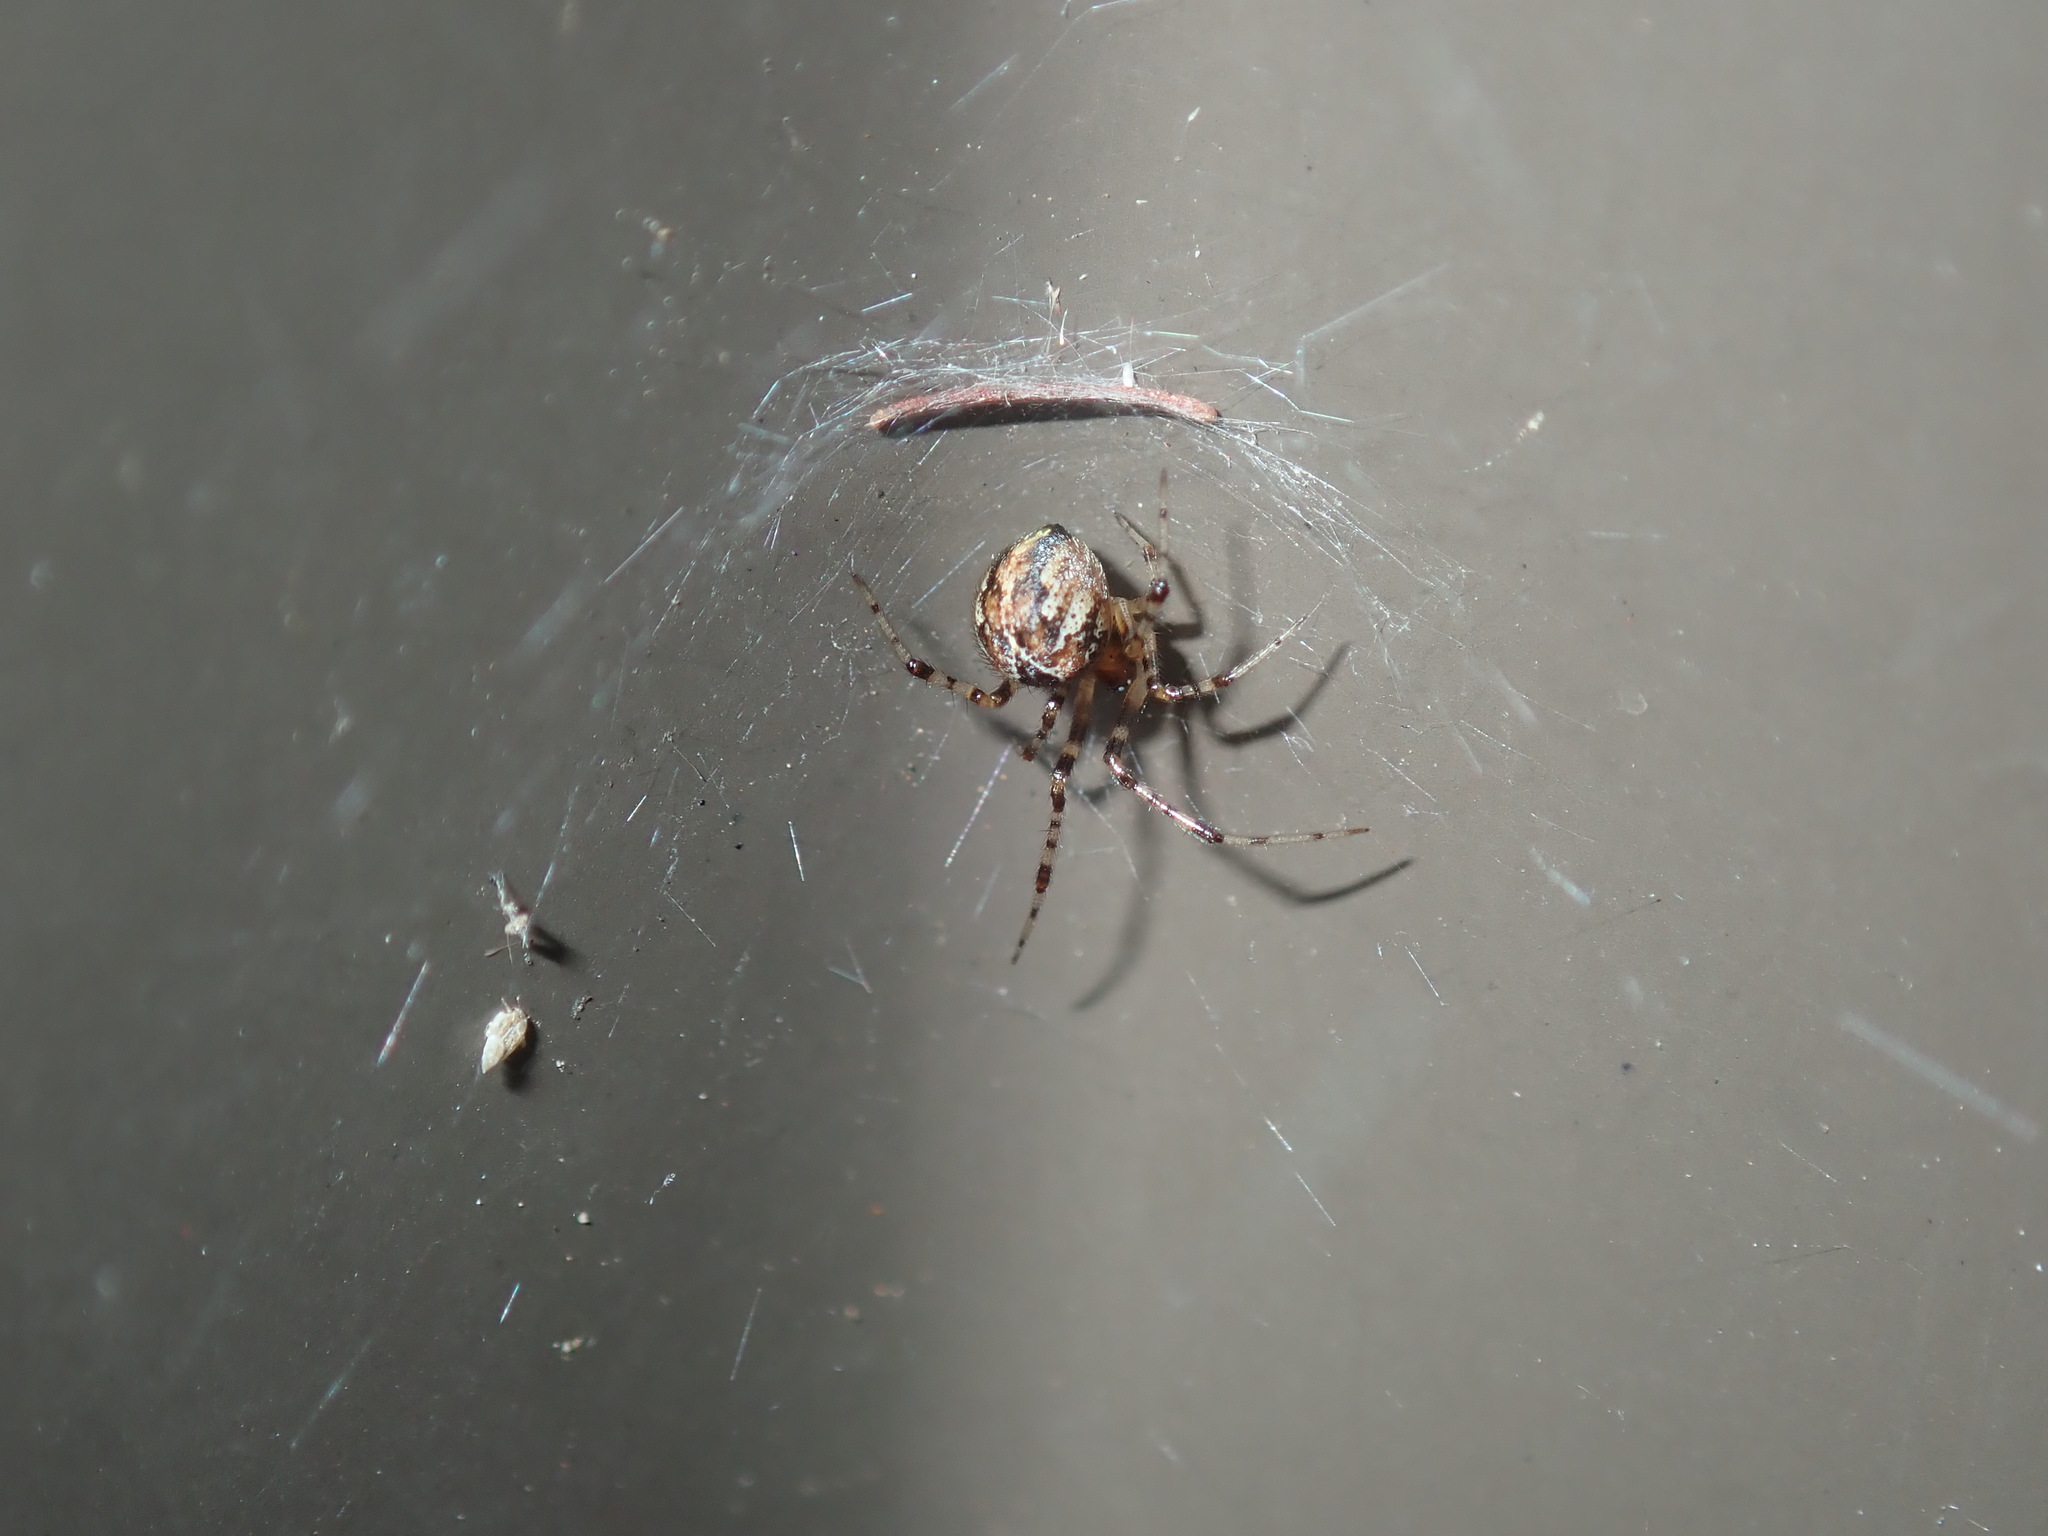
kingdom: Animalia
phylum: Arthropoda
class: Arachnida
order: Araneae
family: Theridiidae
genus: Cryptachaea
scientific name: Cryptachaea veruculata
